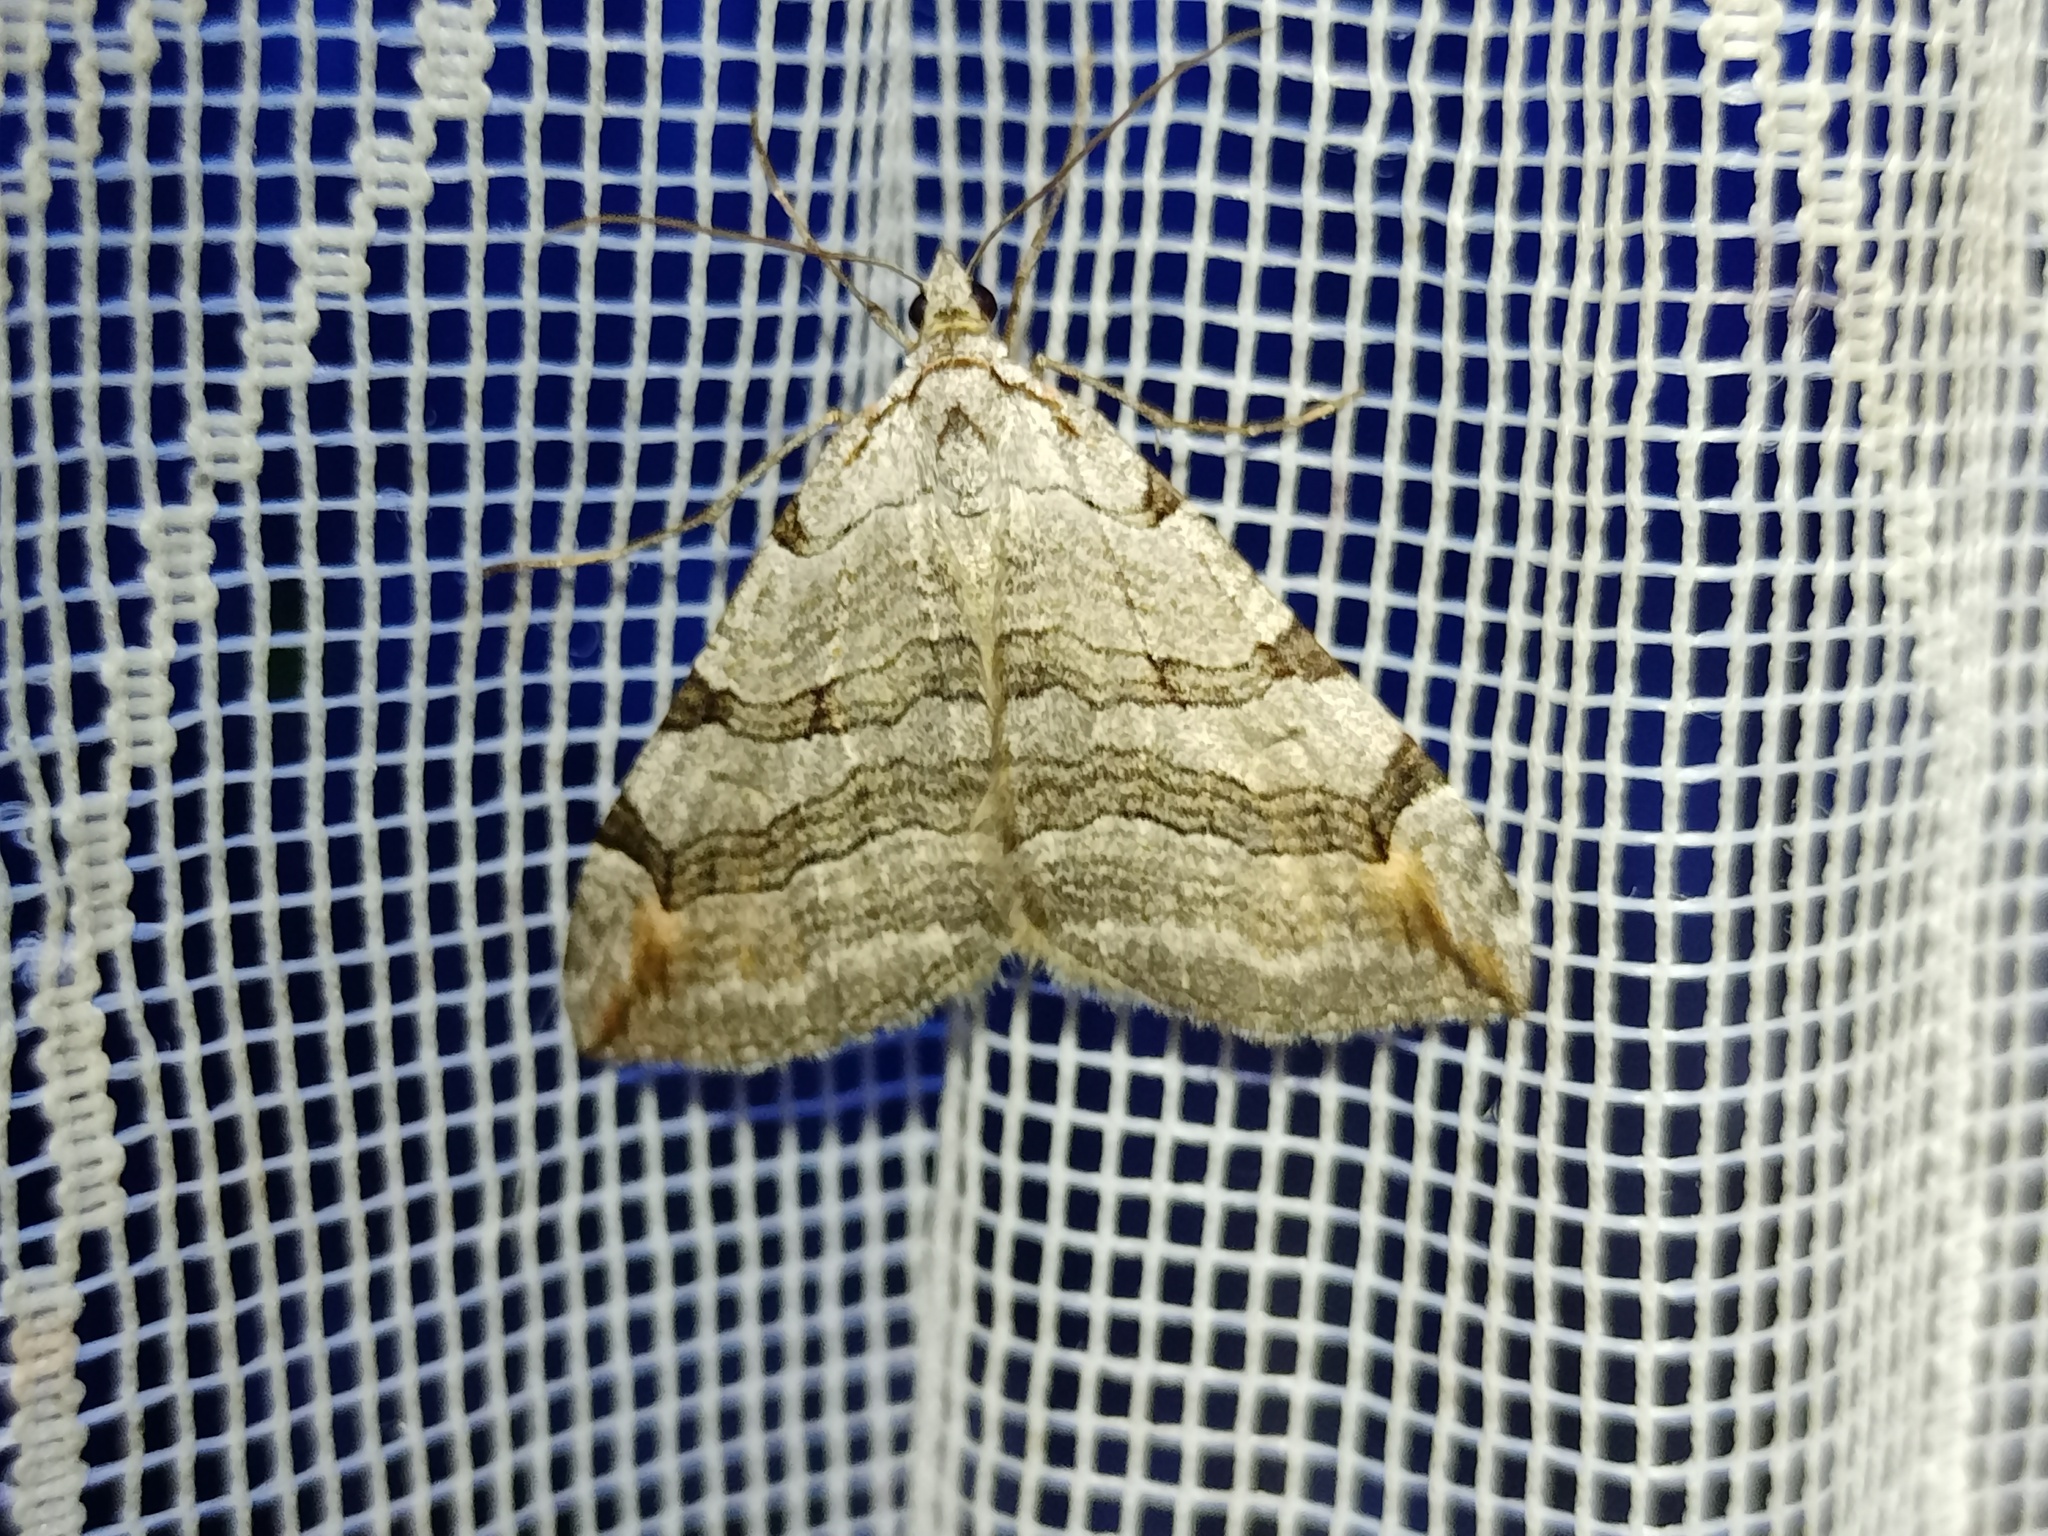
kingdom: Animalia
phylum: Arthropoda
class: Insecta
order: Lepidoptera
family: Geometridae
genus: Aplocera
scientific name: Aplocera plagiata
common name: Treble-bar
